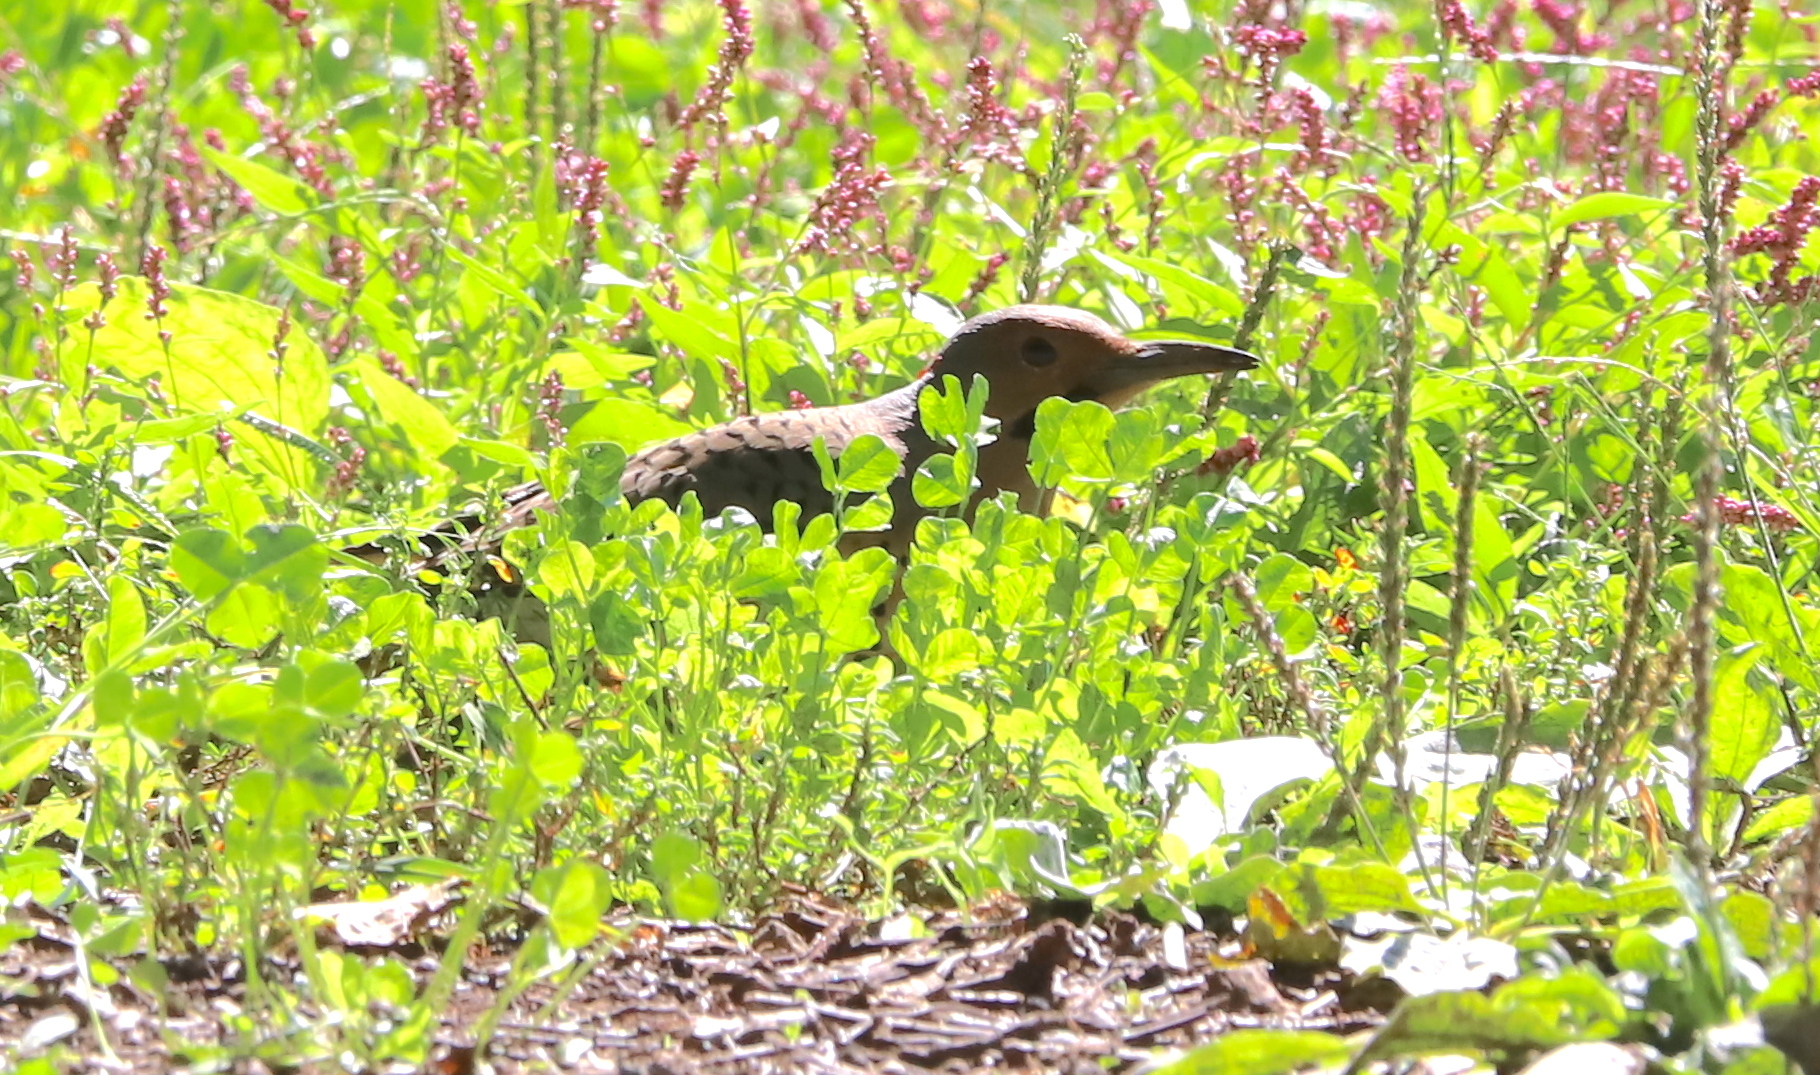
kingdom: Animalia
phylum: Chordata
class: Aves
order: Piciformes
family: Picidae
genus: Colaptes
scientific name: Colaptes auratus
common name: Northern flicker
